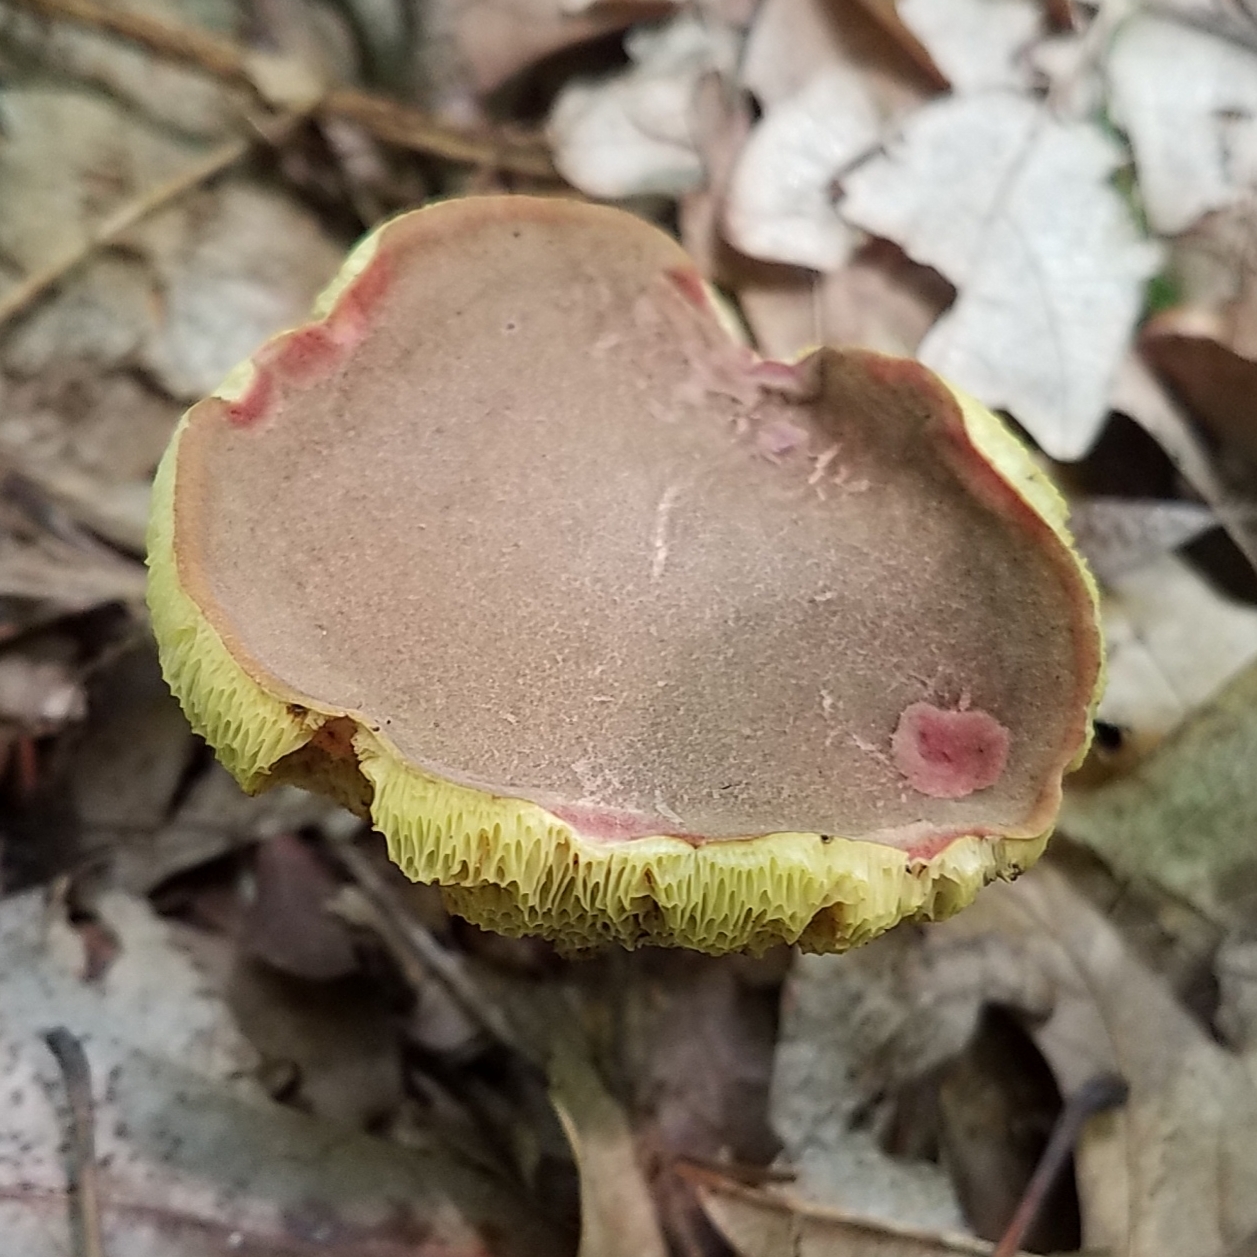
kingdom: Fungi
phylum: Basidiomycota
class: Agaricomycetes
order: Boletales
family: Boletaceae
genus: Xerocomellus
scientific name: Xerocomellus chrysenteron
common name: Red-cracking bolete
